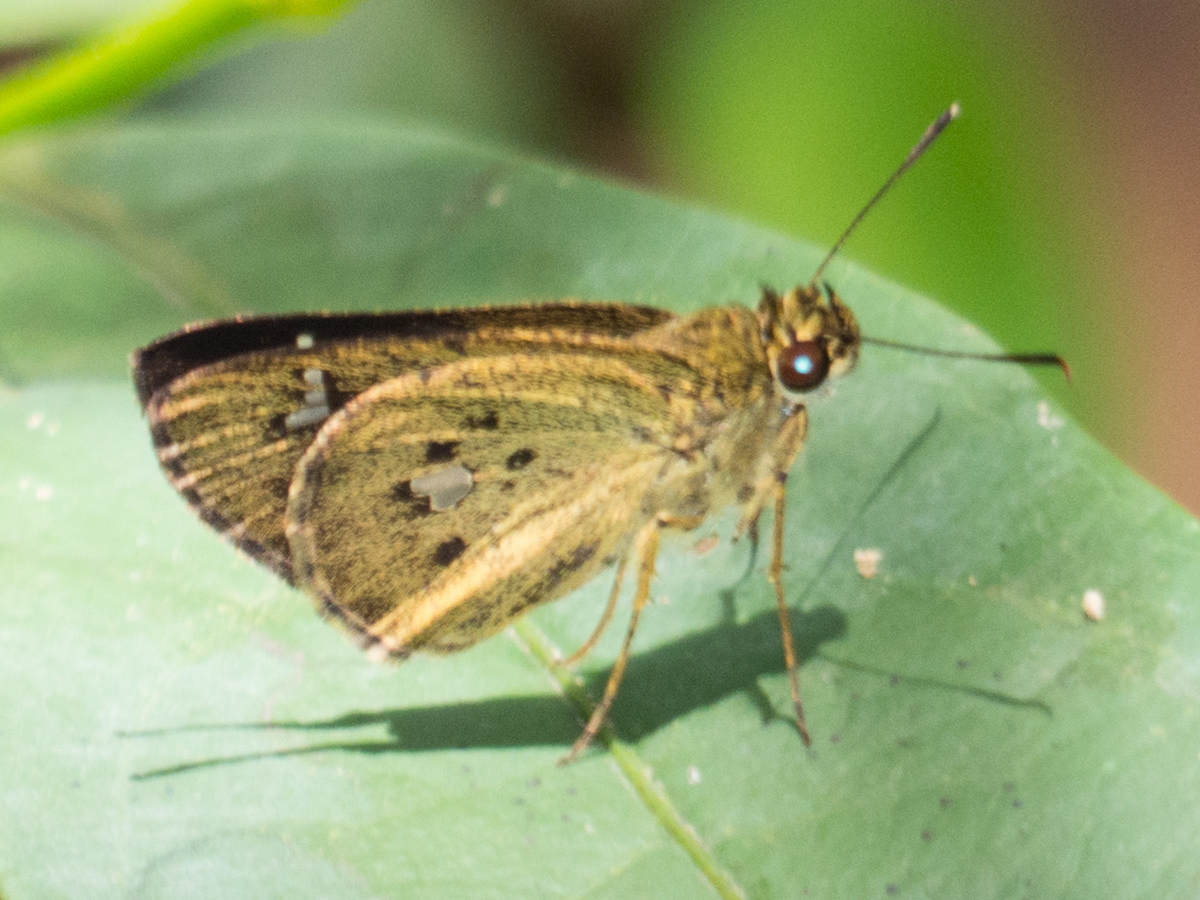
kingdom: Animalia
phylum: Arthropoda
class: Insecta
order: Lepidoptera
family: Hesperiidae
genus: Scobura
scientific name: Scobura phiditia
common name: Malay forest bob
